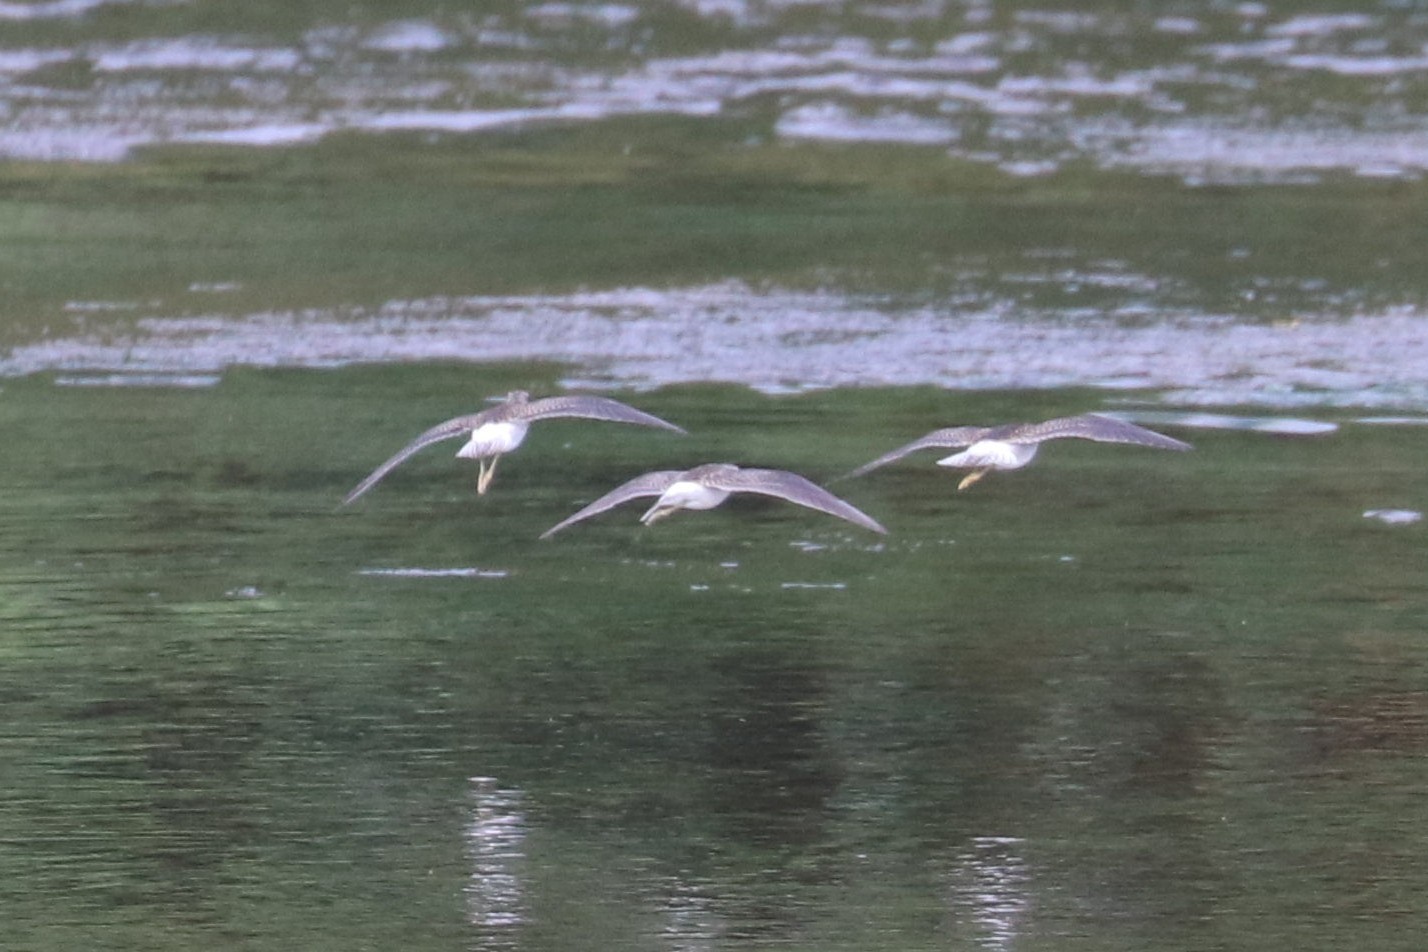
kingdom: Animalia
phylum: Chordata
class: Aves
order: Charadriiformes
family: Scolopacidae
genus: Tringa
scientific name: Tringa glareola
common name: Wood sandpiper
